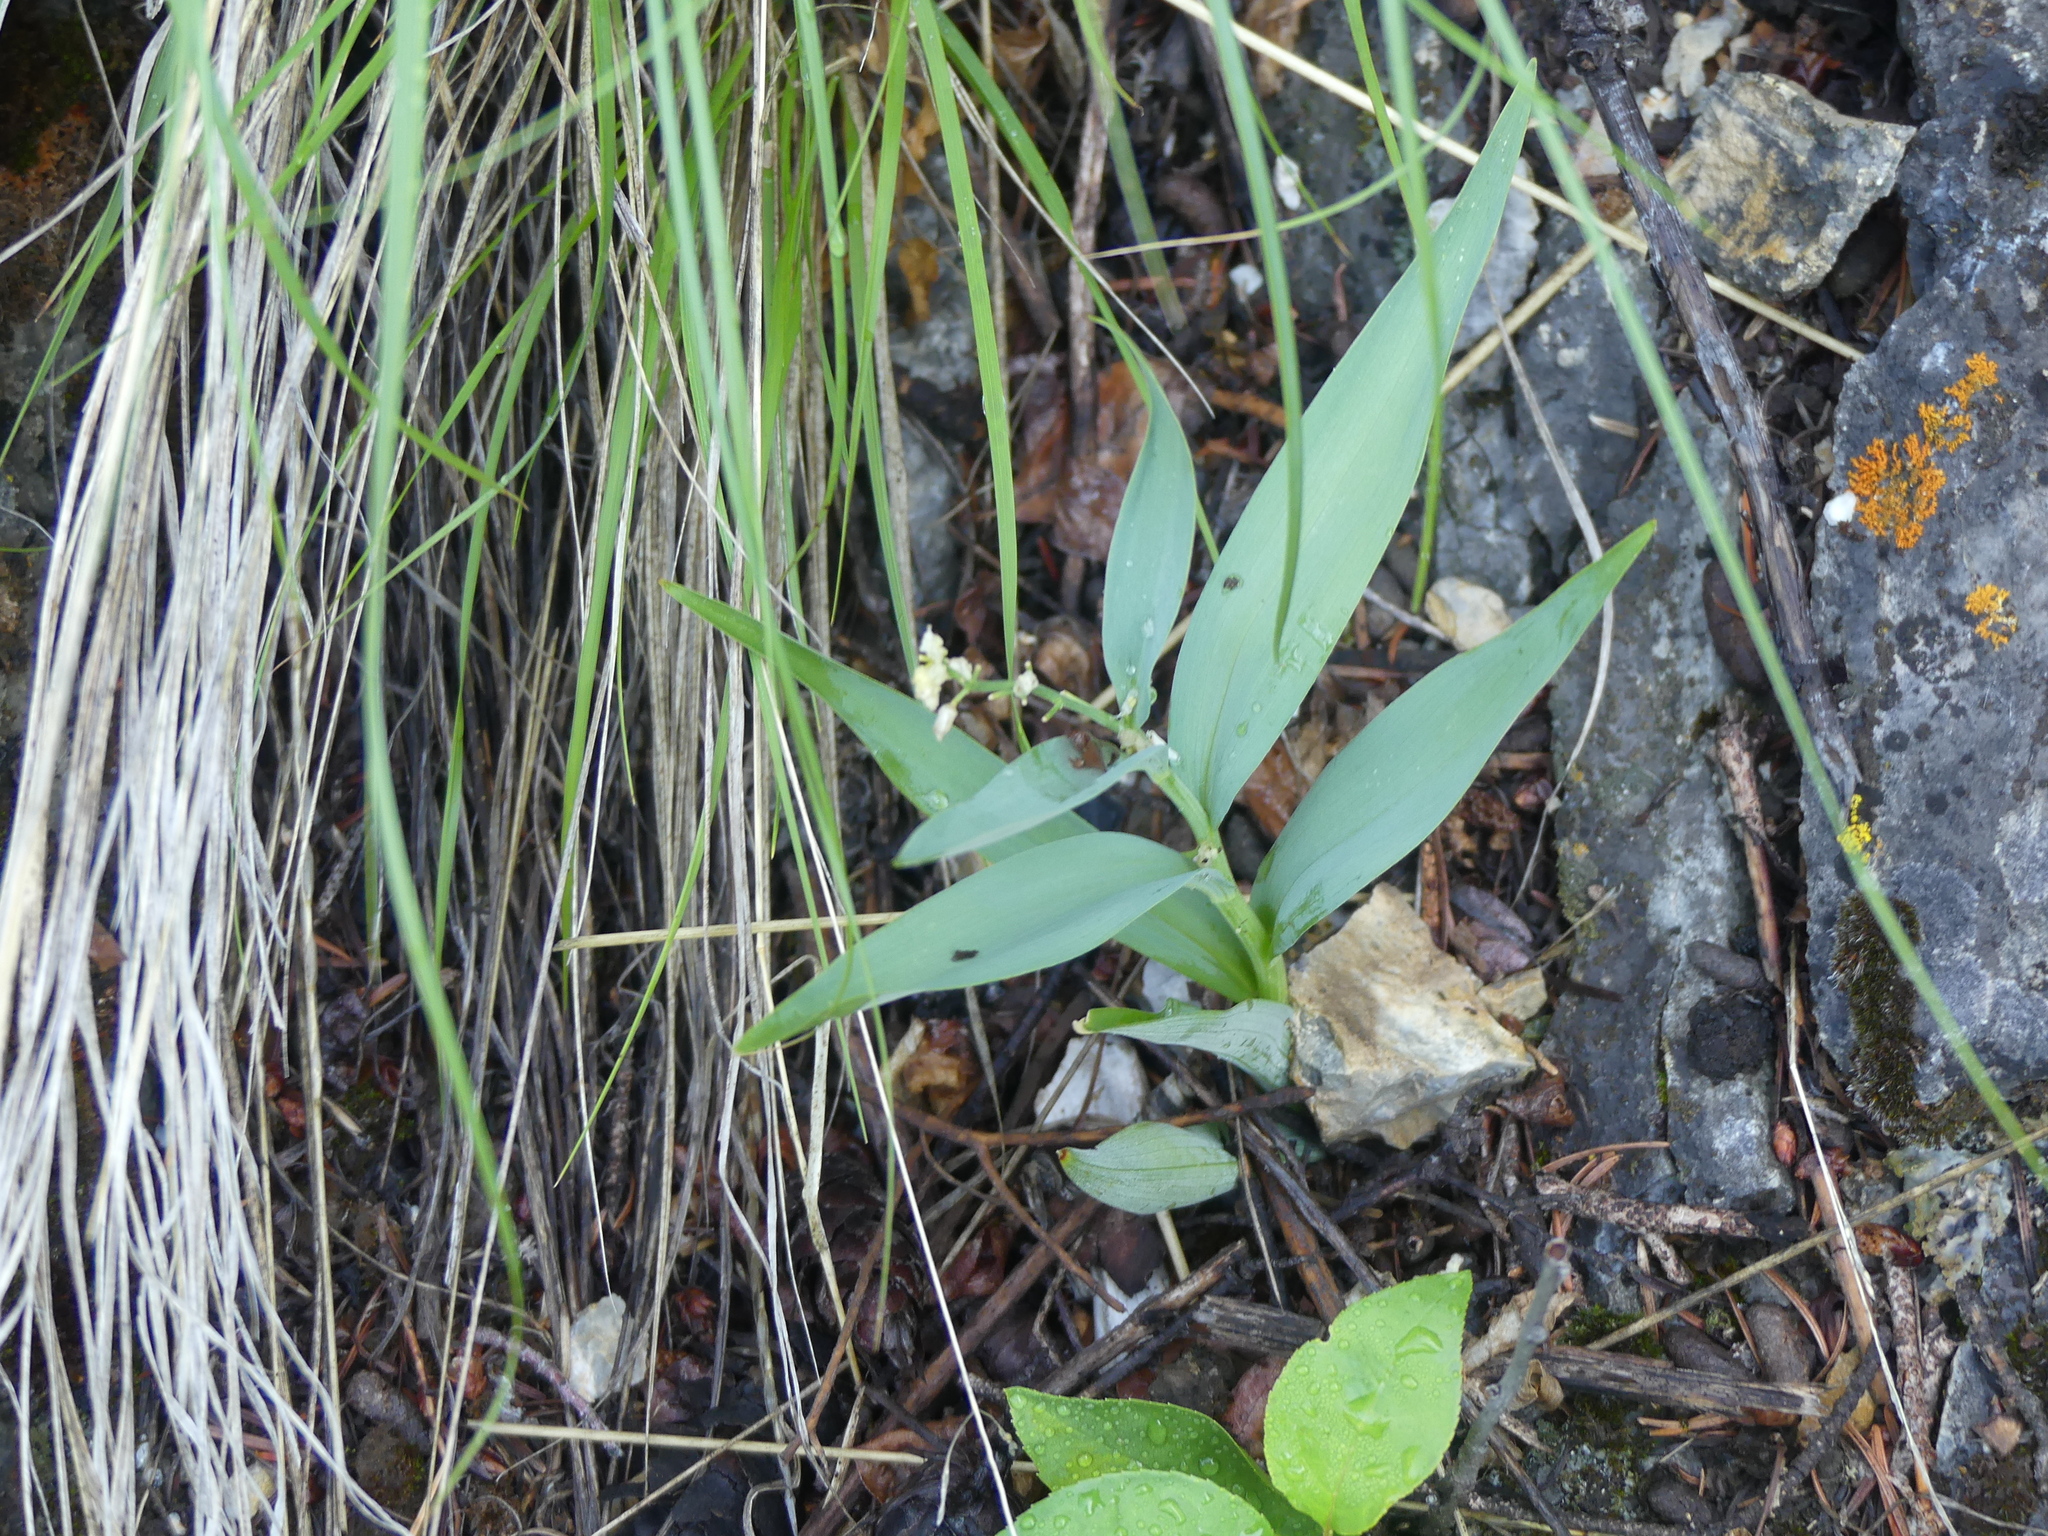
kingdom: Plantae
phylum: Tracheophyta
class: Liliopsida
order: Asparagales
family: Asparagaceae
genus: Maianthemum
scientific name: Maianthemum stellatum
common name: Little false solomon's seal
